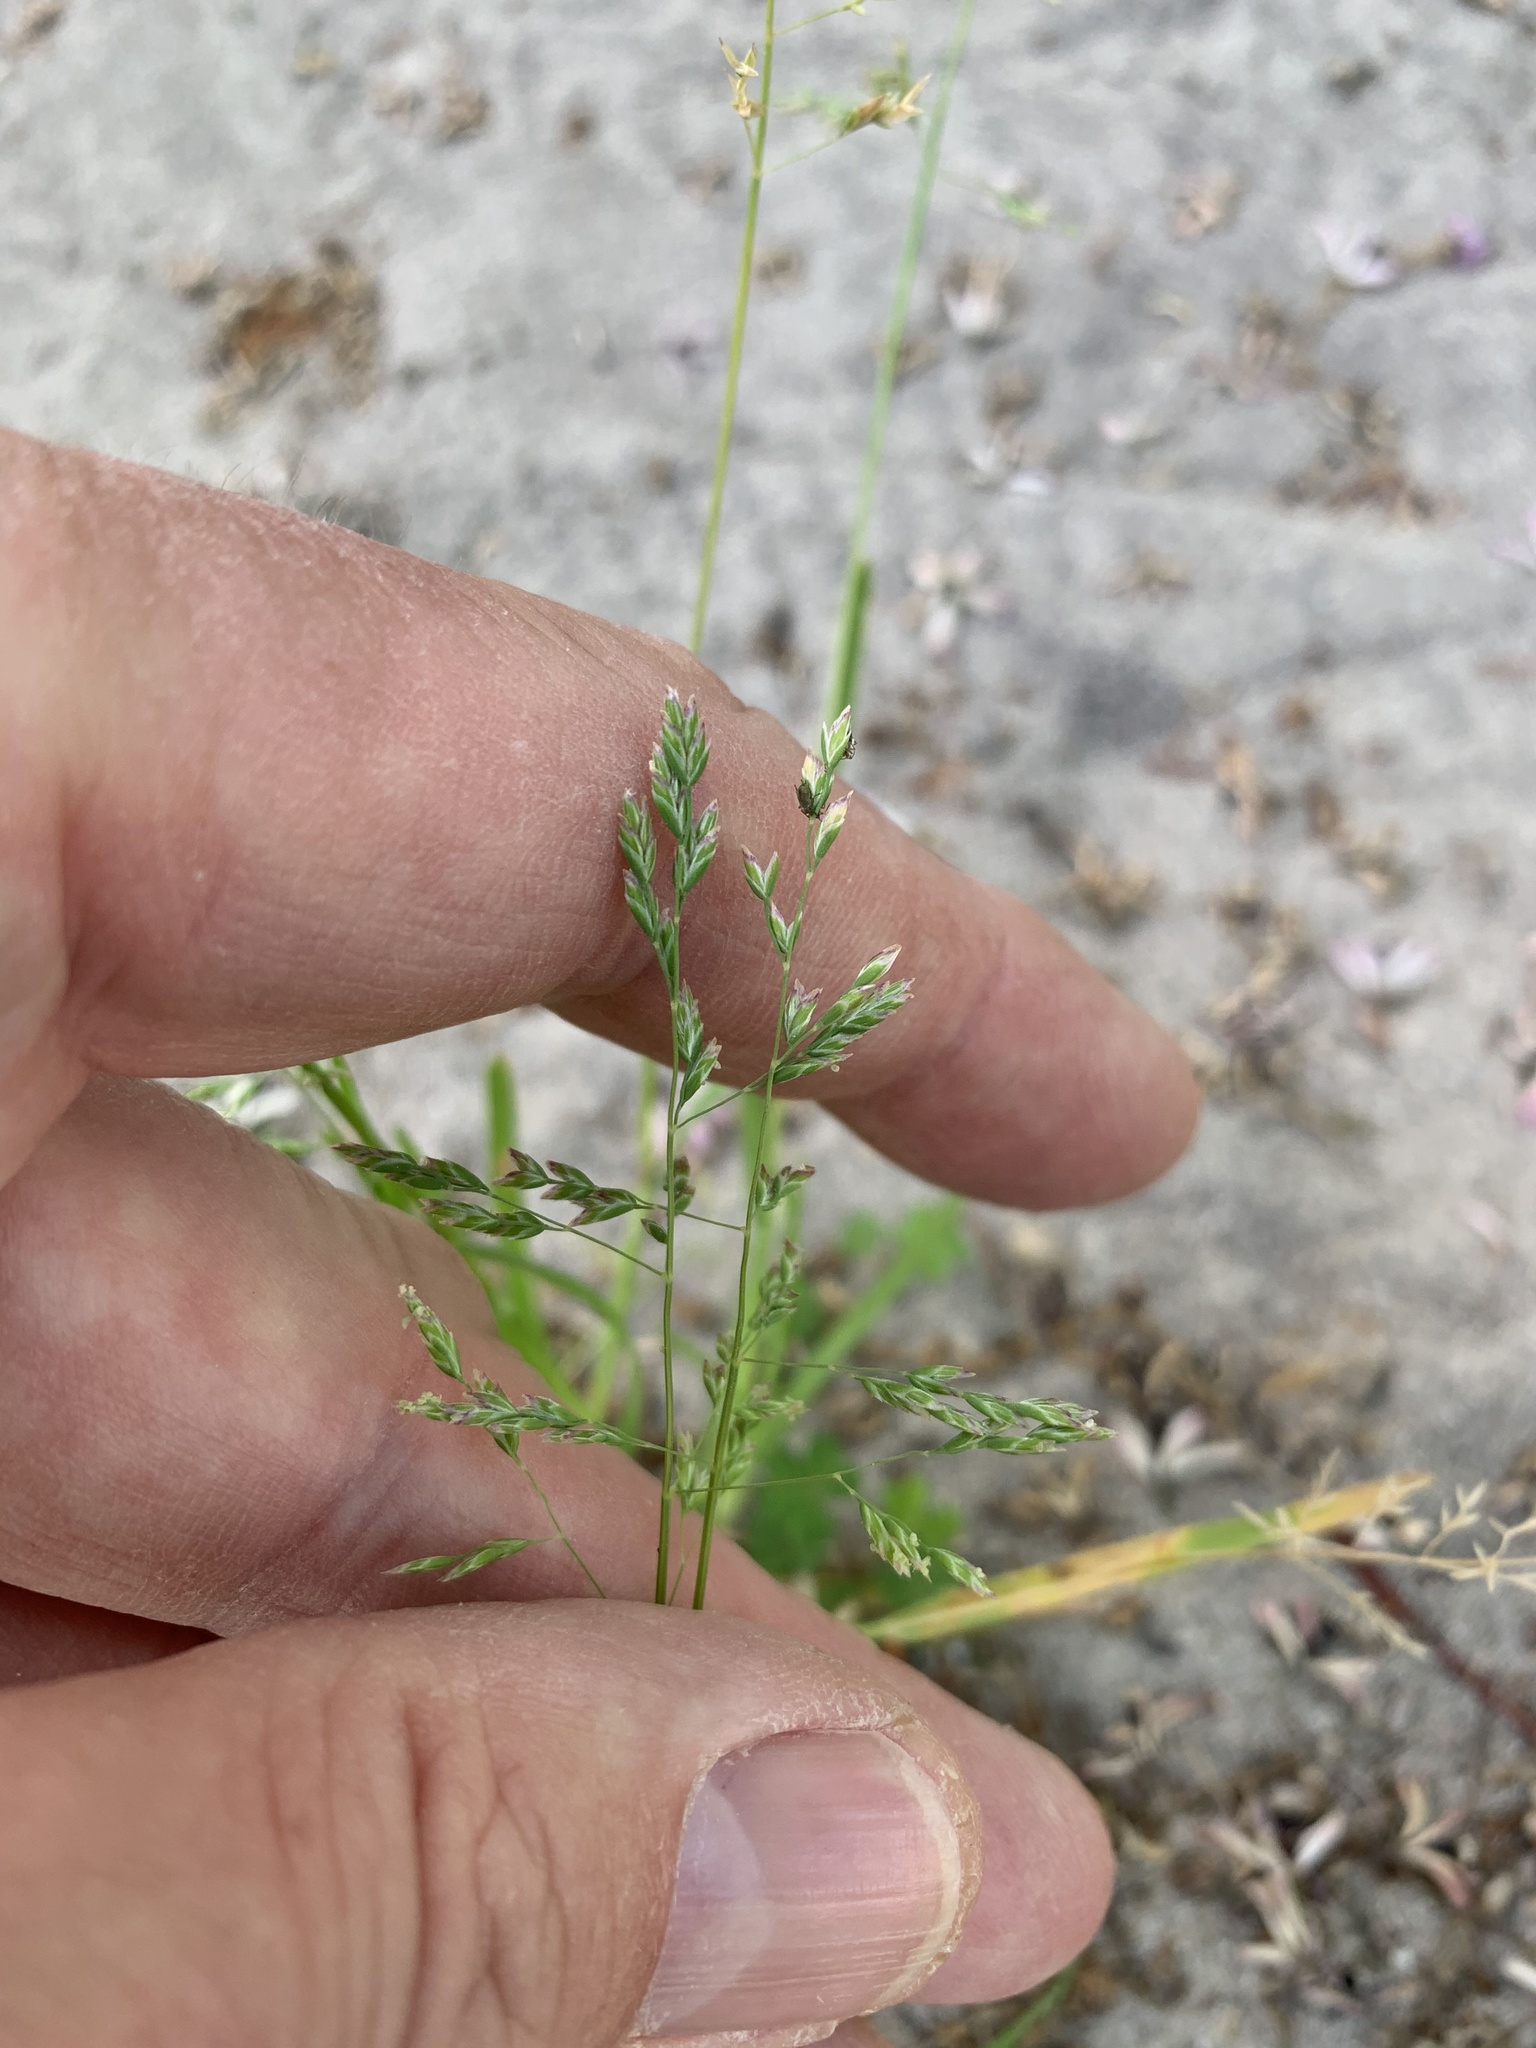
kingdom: Plantae
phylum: Tracheophyta
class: Liliopsida
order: Poales
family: Poaceae
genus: Poa
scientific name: Poa annua
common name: Annual bluegrass
